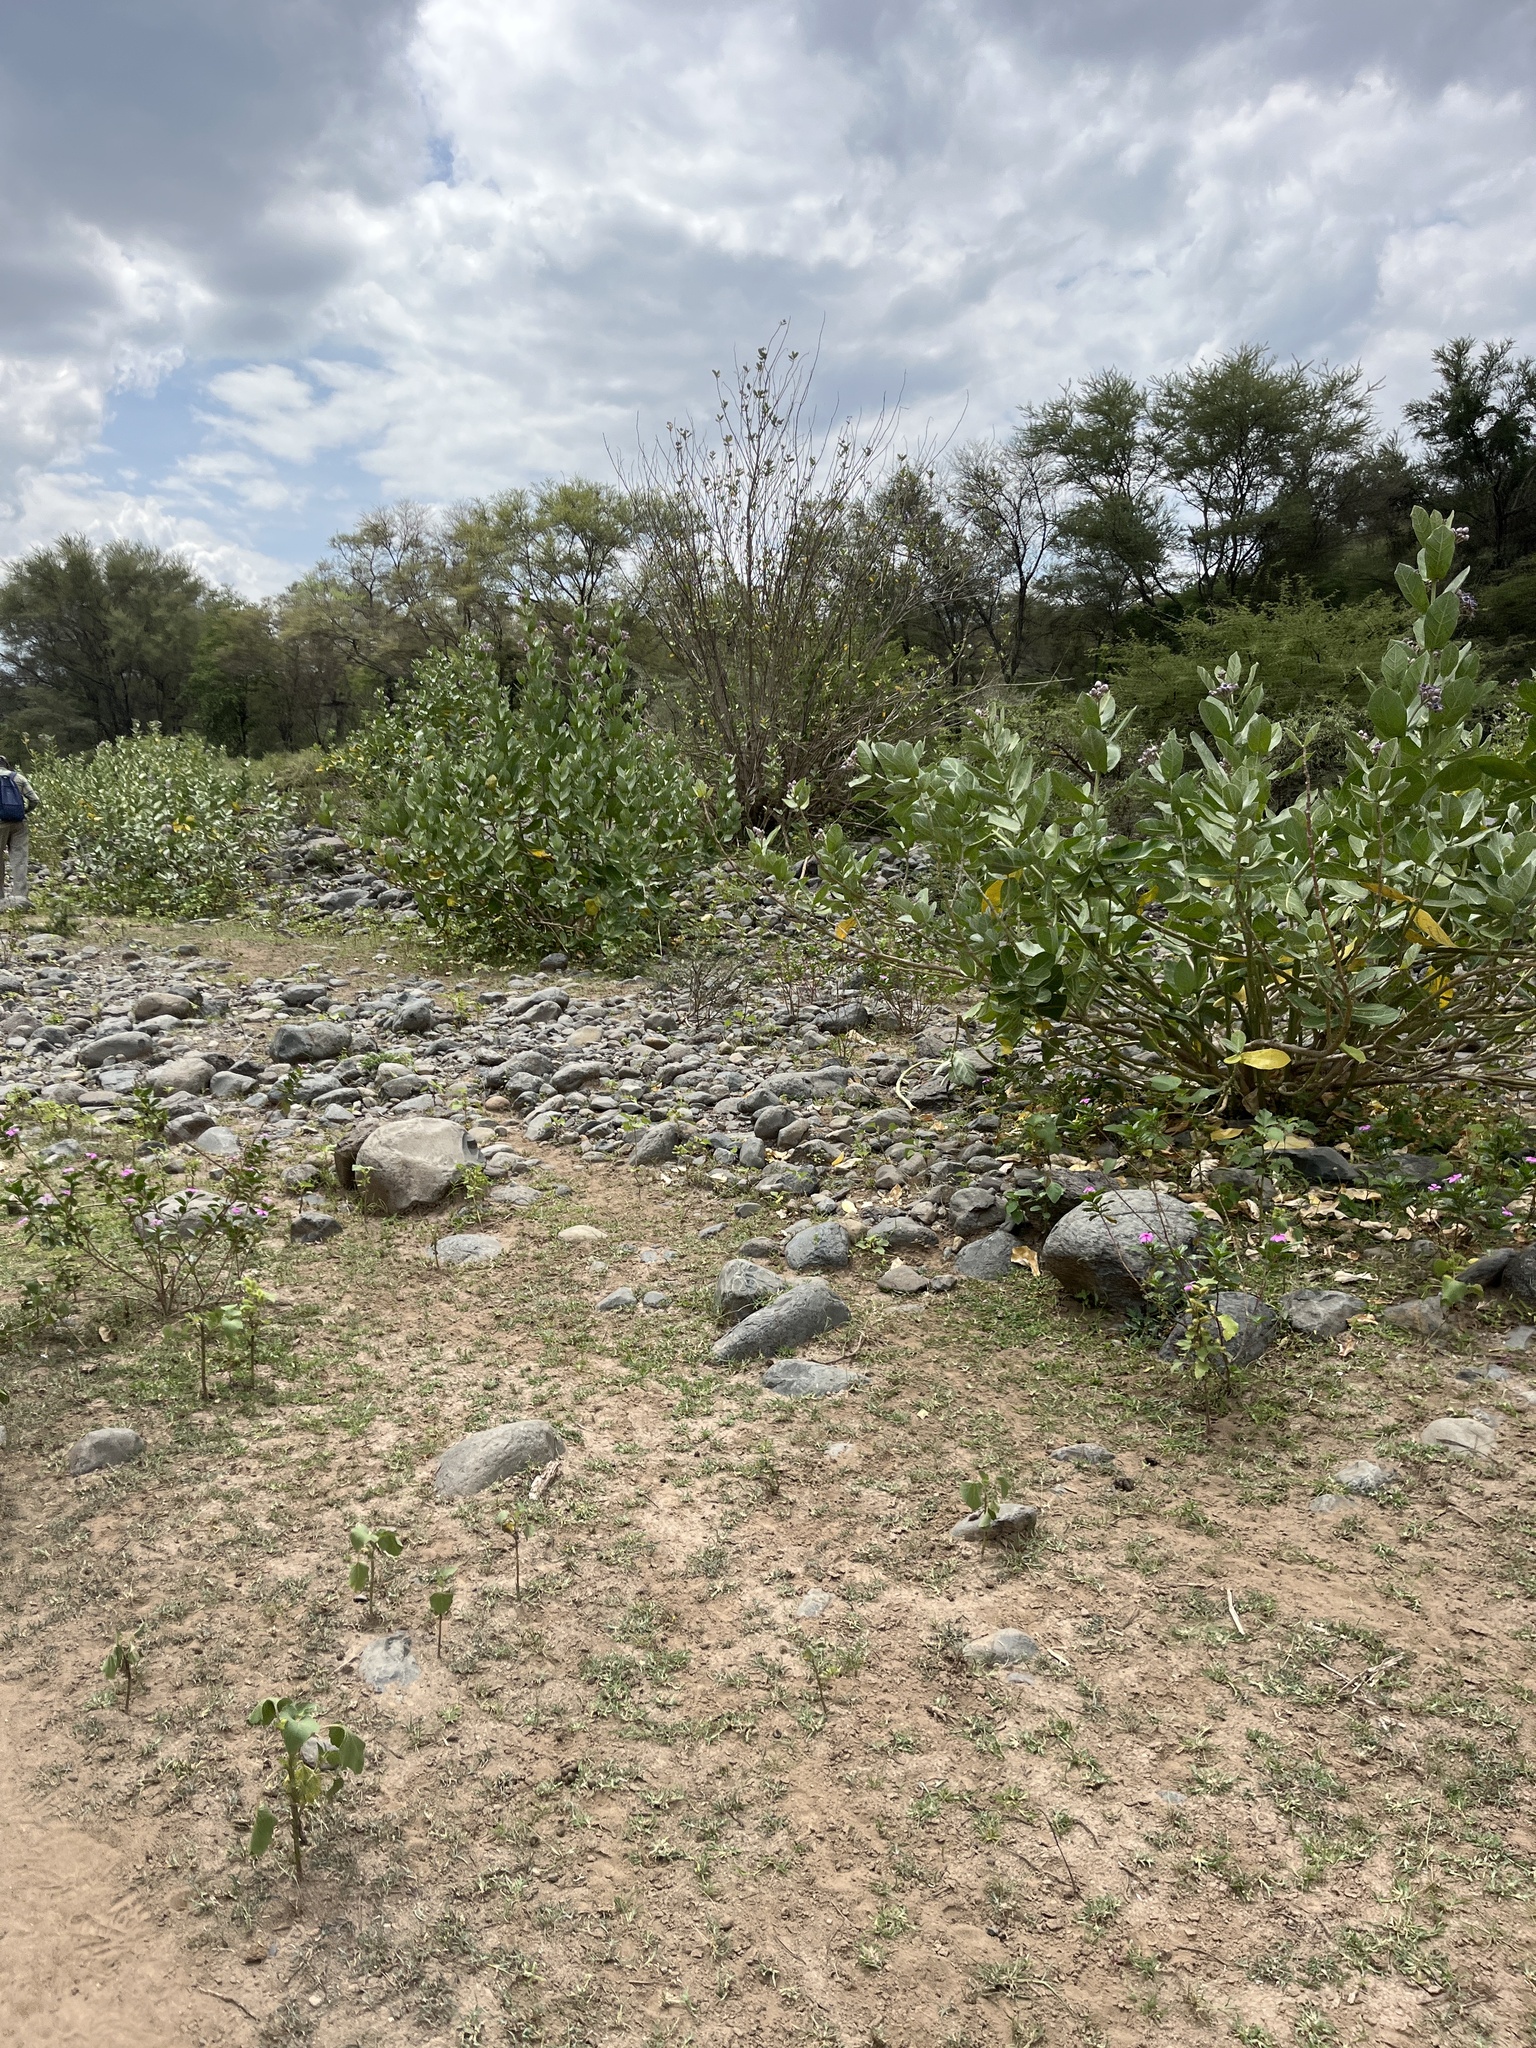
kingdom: Plantae
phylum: Tracheophyta
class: Magnoliopsida
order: Gentianales
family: Apocynaceae
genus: Calotropis
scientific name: Calotropis gigantea
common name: Crown flower
